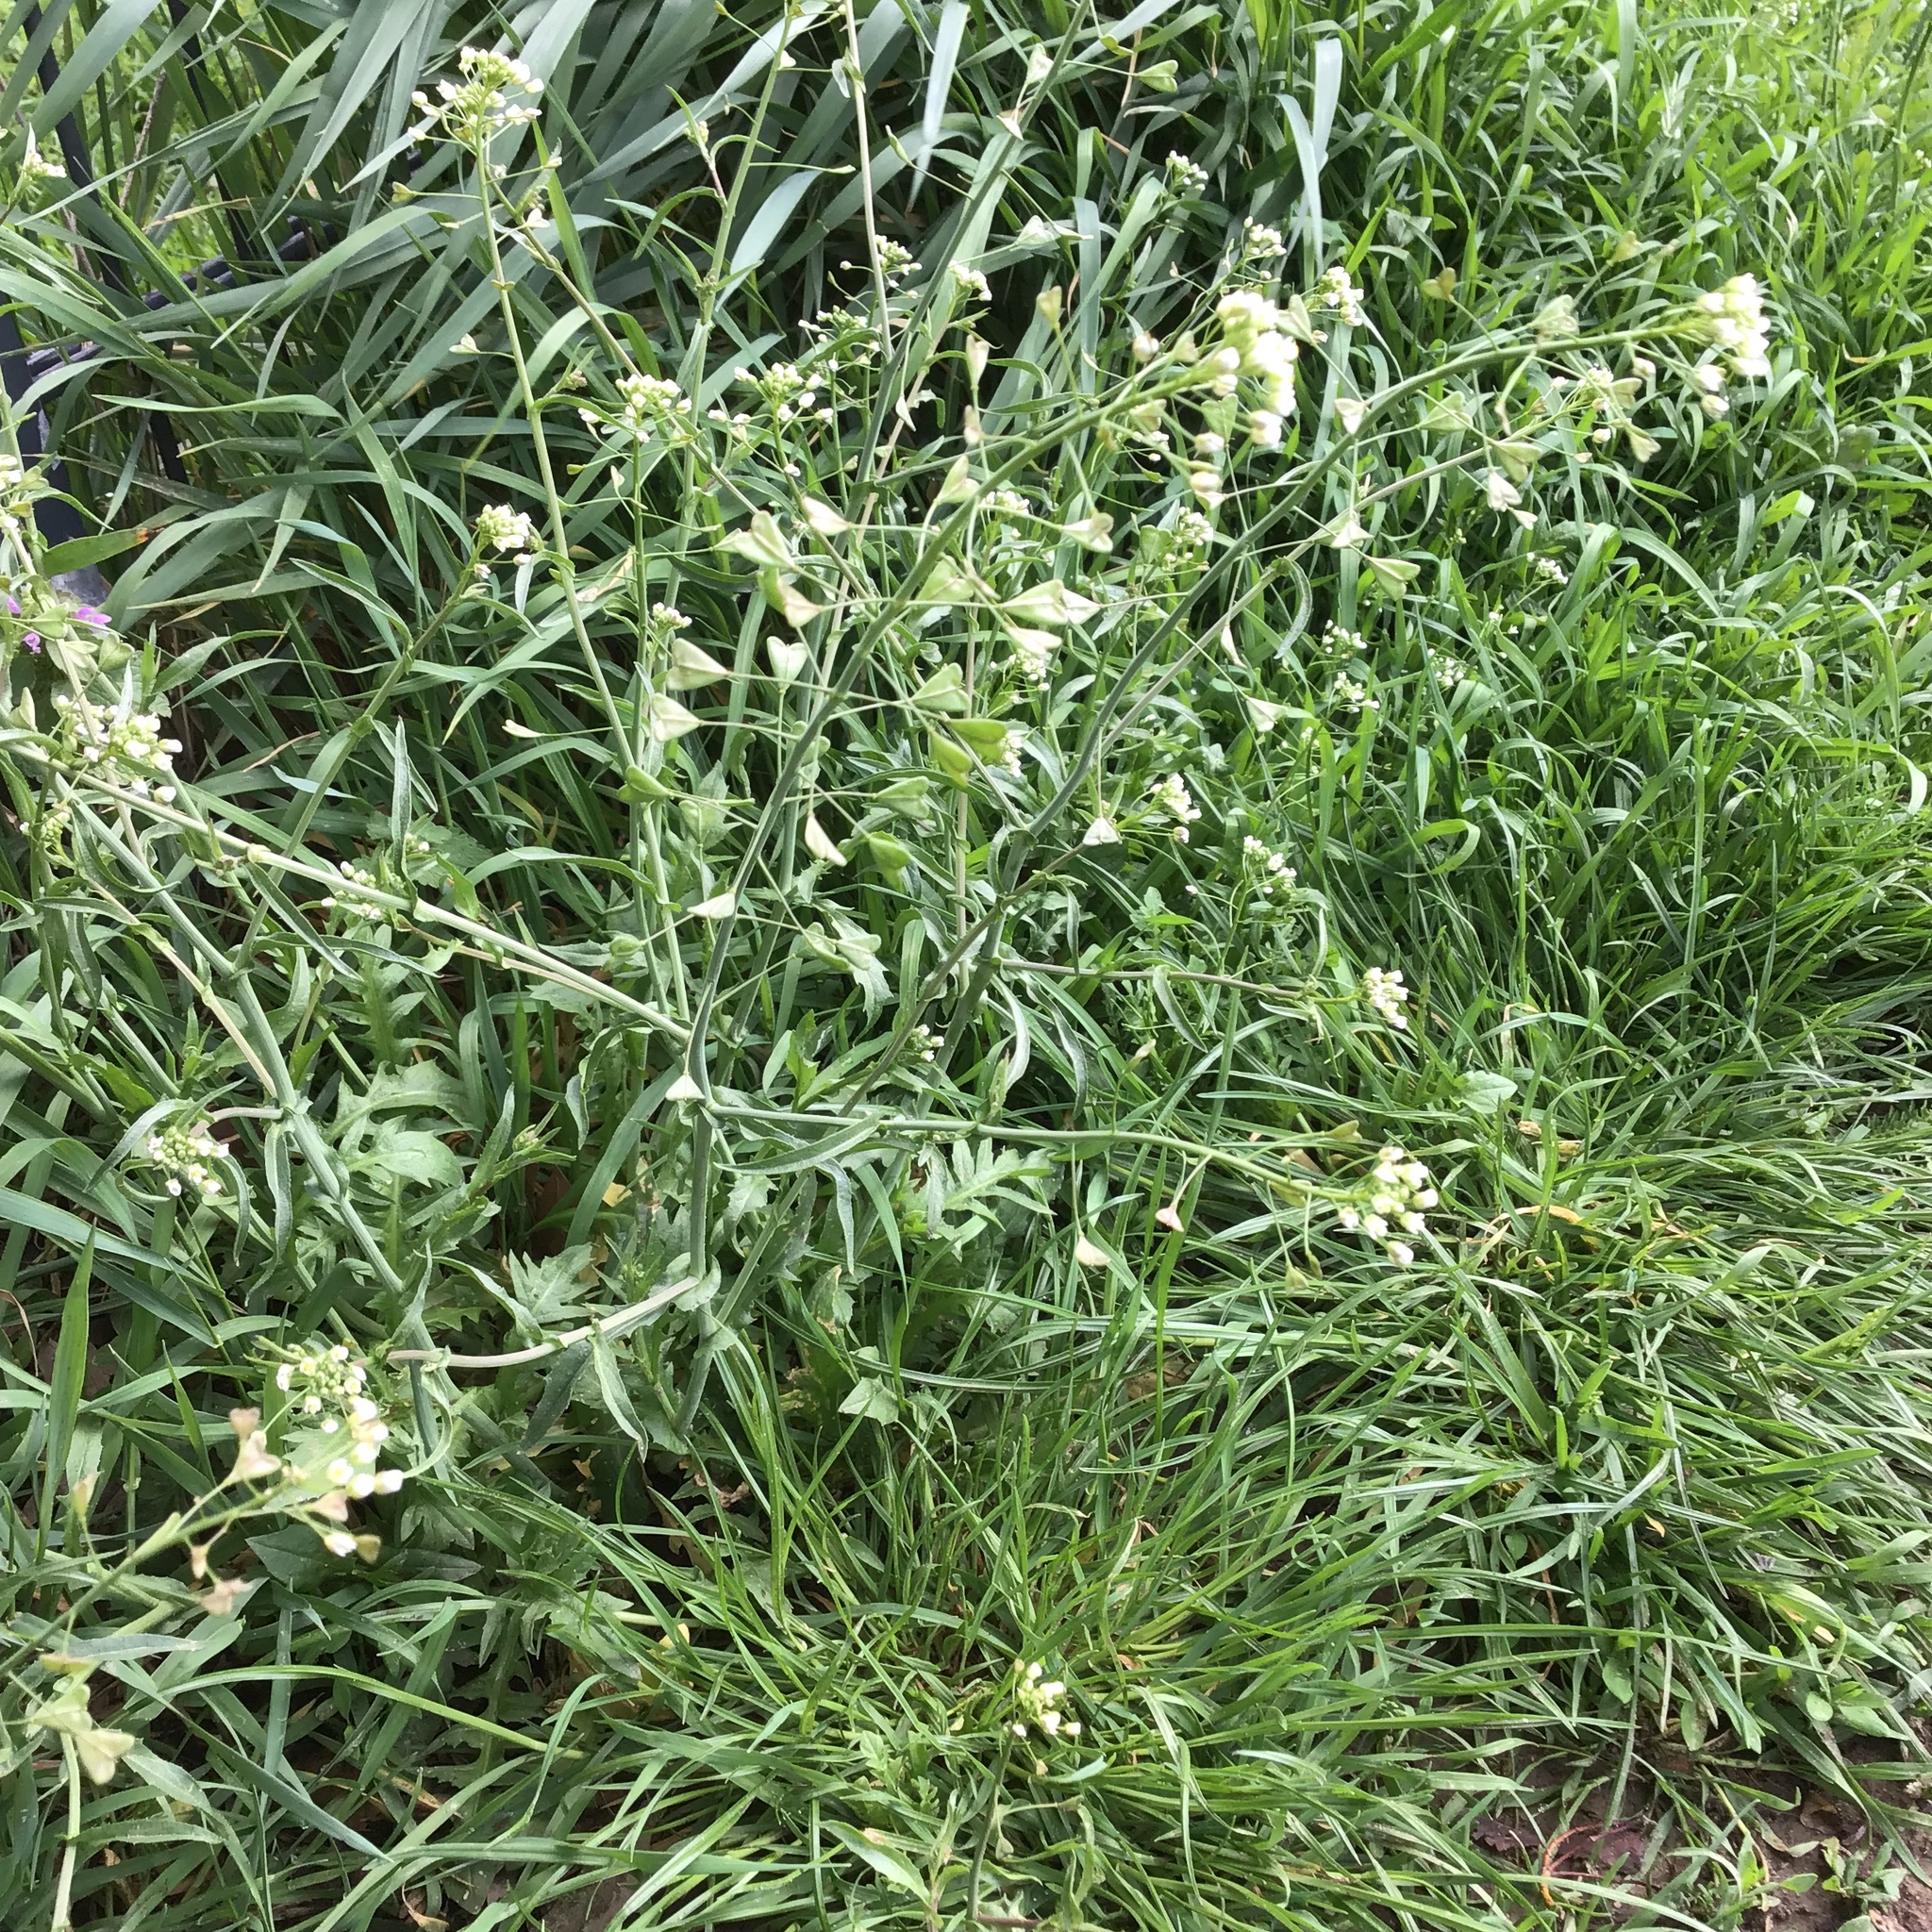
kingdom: Plantae
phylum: Tracheophyta
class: Magnoliopsida
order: Brassicales
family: Brassicaceae
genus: Capsella
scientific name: Capsella bursa-pastoris
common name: Shepherd's purse
